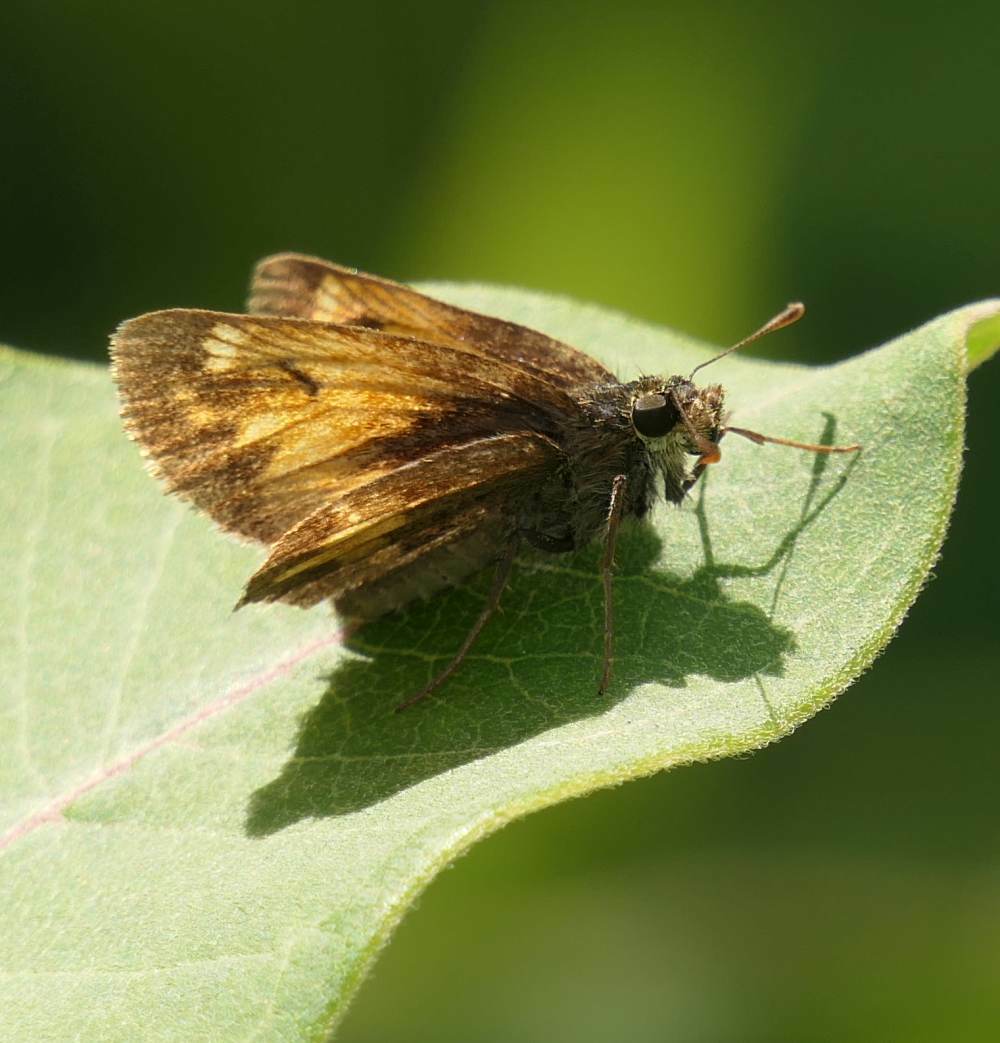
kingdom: Animalia
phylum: Arthropoda
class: Insecta
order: Lepidoptera
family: Hesperiidae
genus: Lon
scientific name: Lon hobomok
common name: Hobomok skipper
